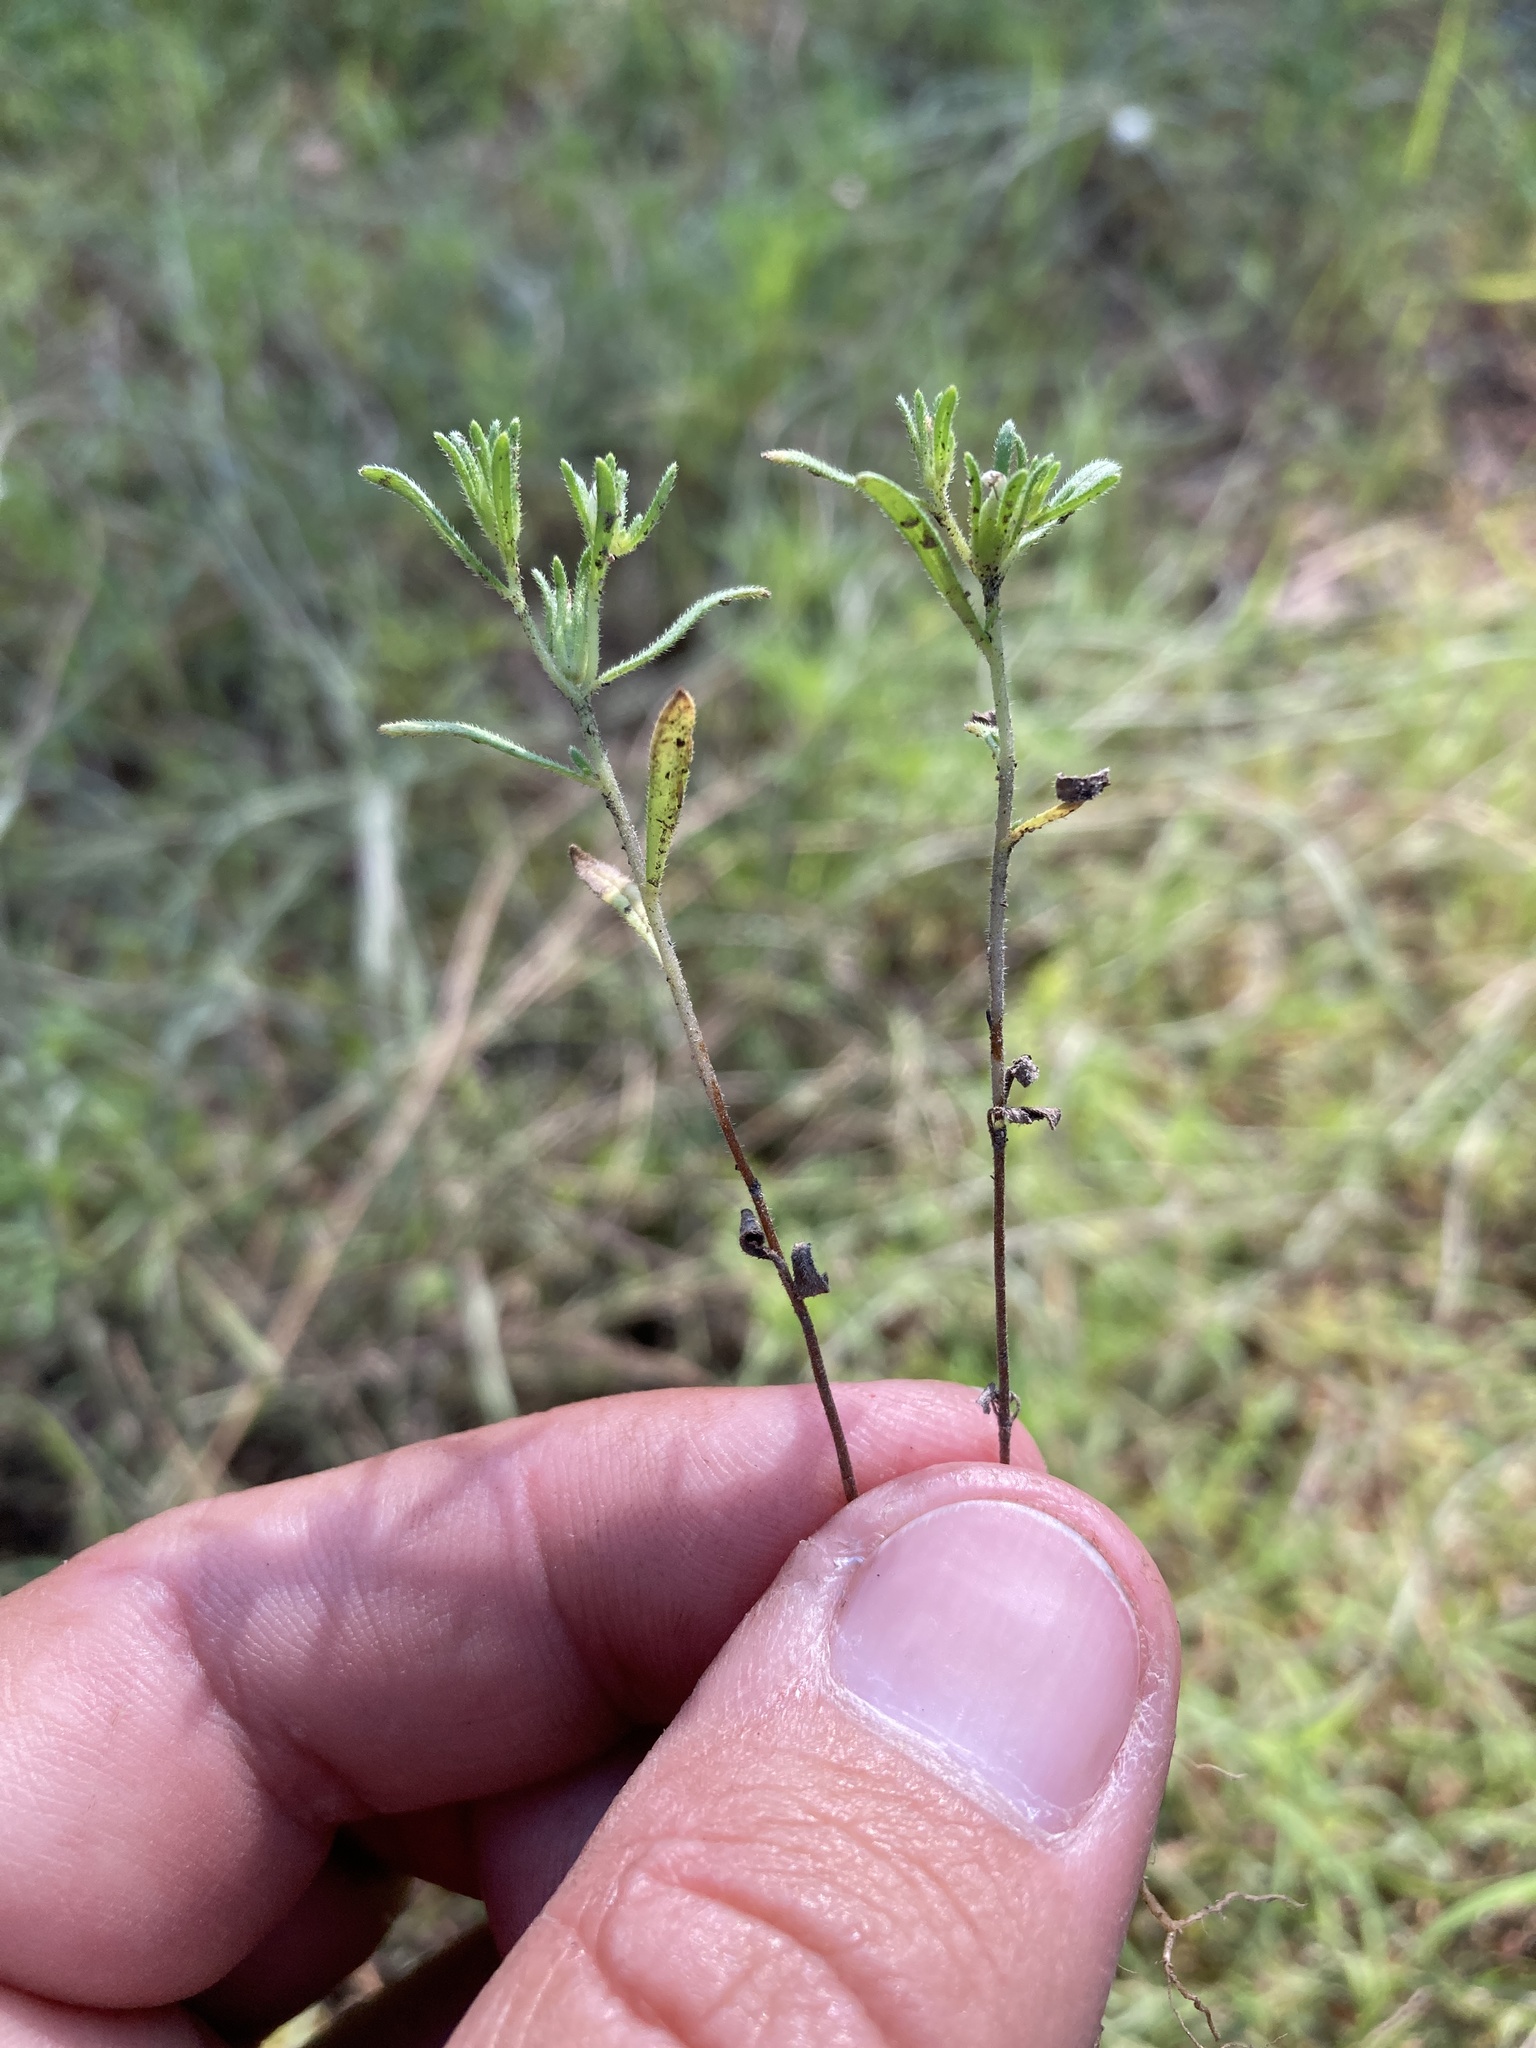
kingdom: Plantae
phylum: Tracheophyta
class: Magnoliopsida
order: Boraginales
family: Namaceae
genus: Nama
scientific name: Nama dichotoma
